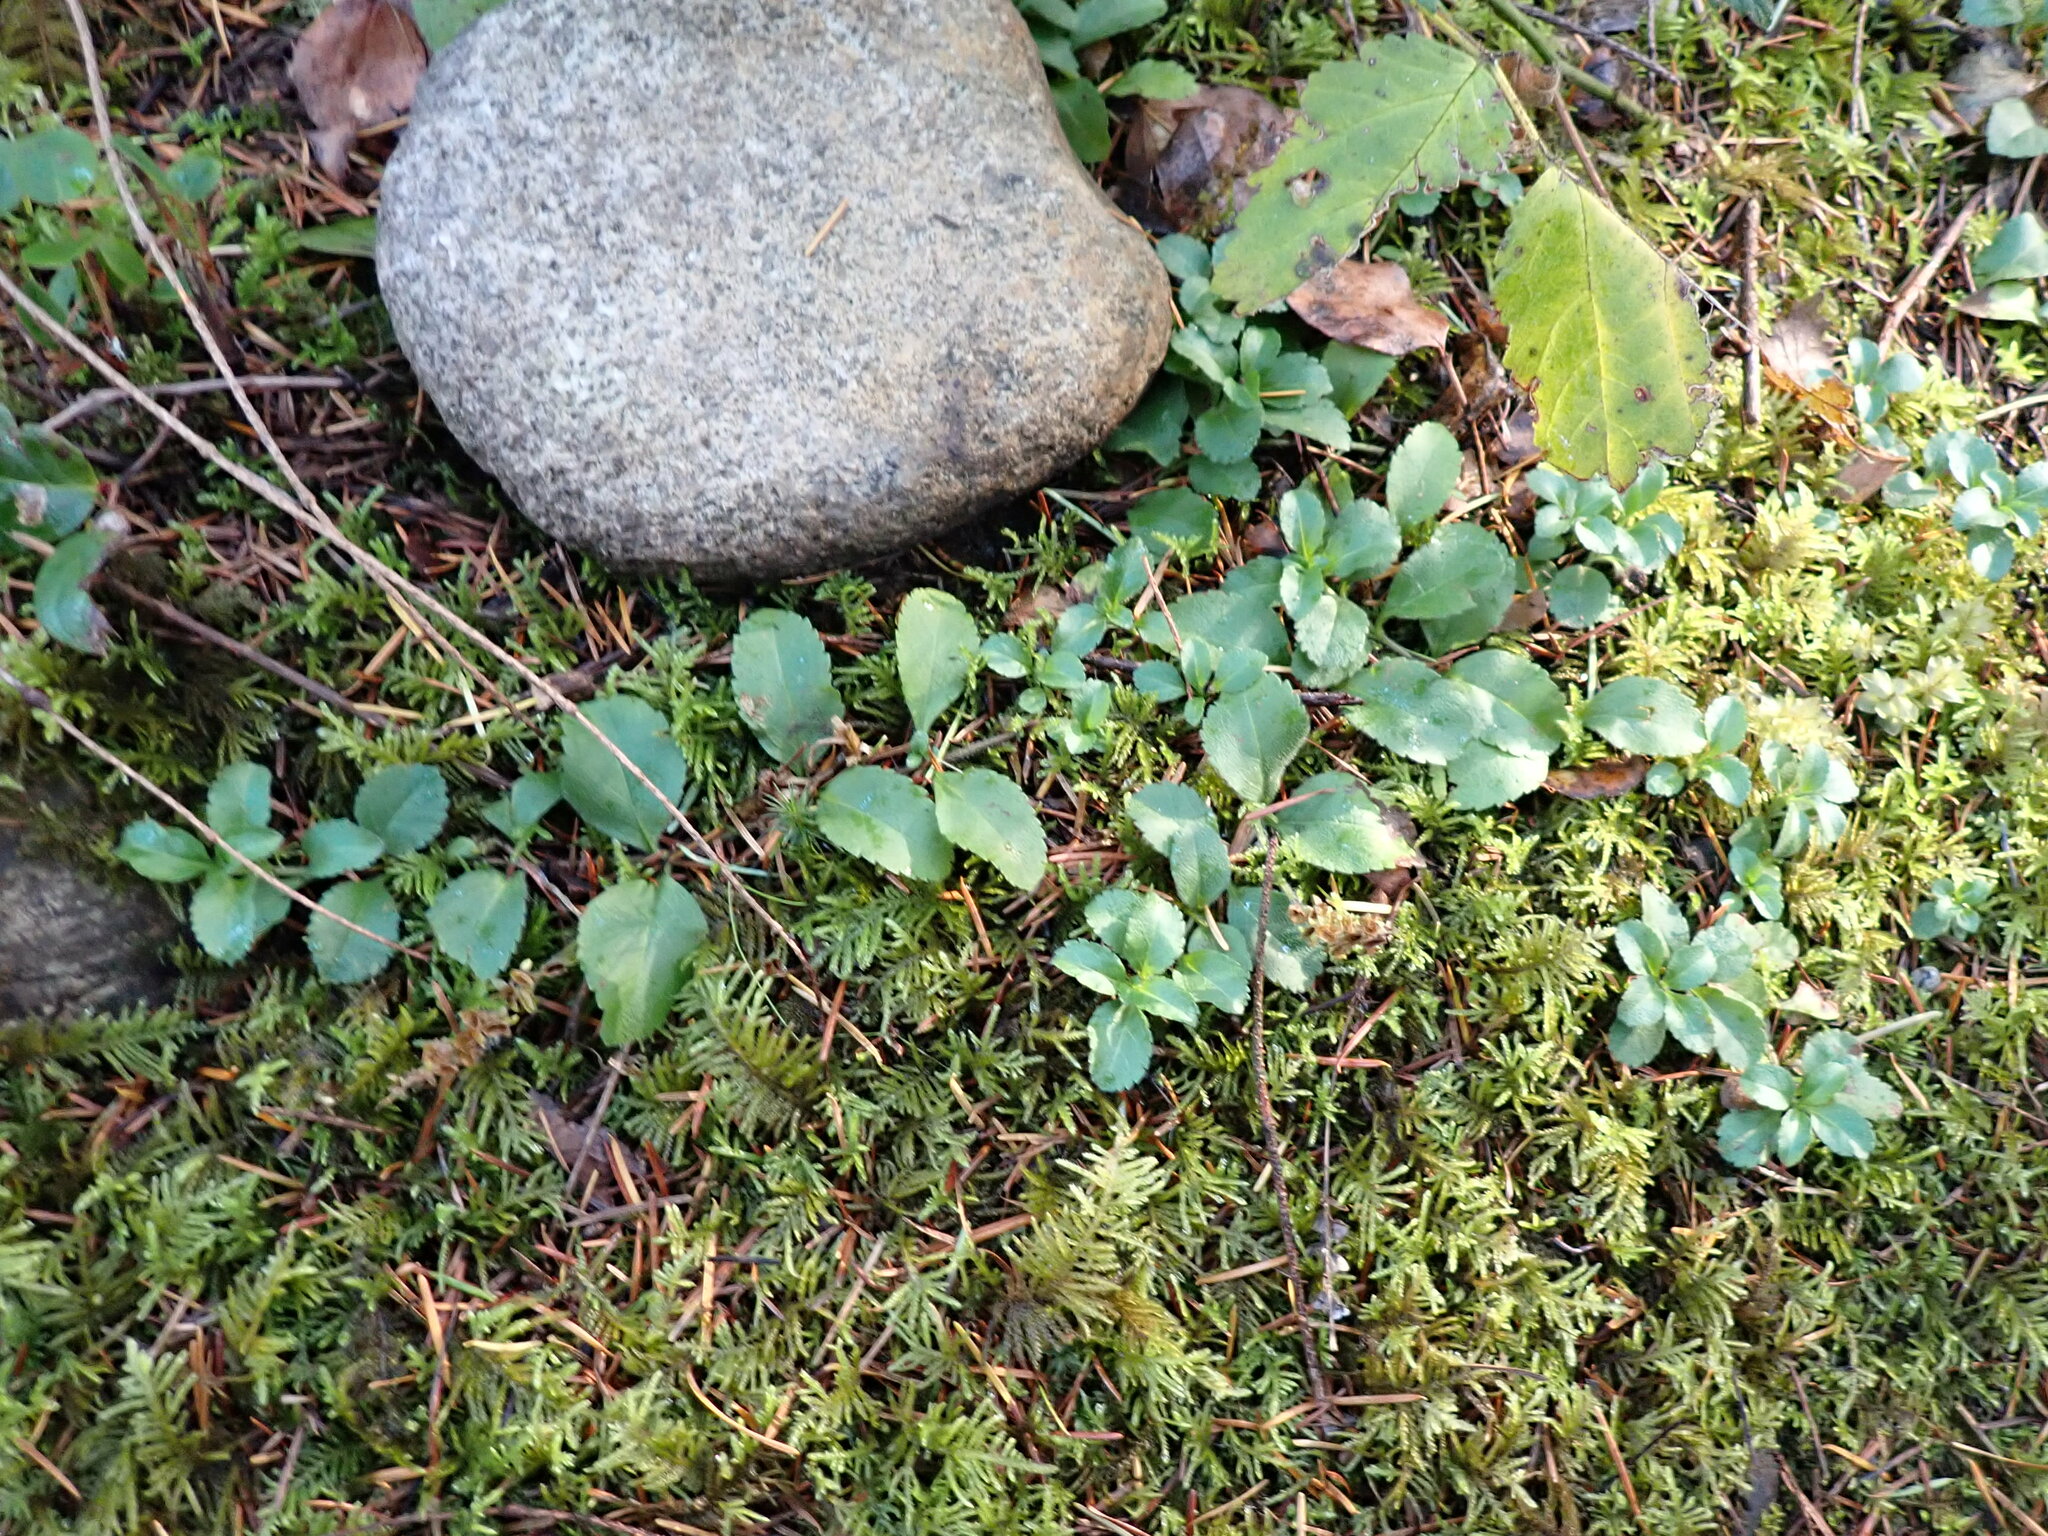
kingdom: Plantae
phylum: Tracheophyta
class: Magnoliopsida
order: Lamiales
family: Plantaginaceae
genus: Veronica
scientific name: Veronica officinalis
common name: Common speedwell
